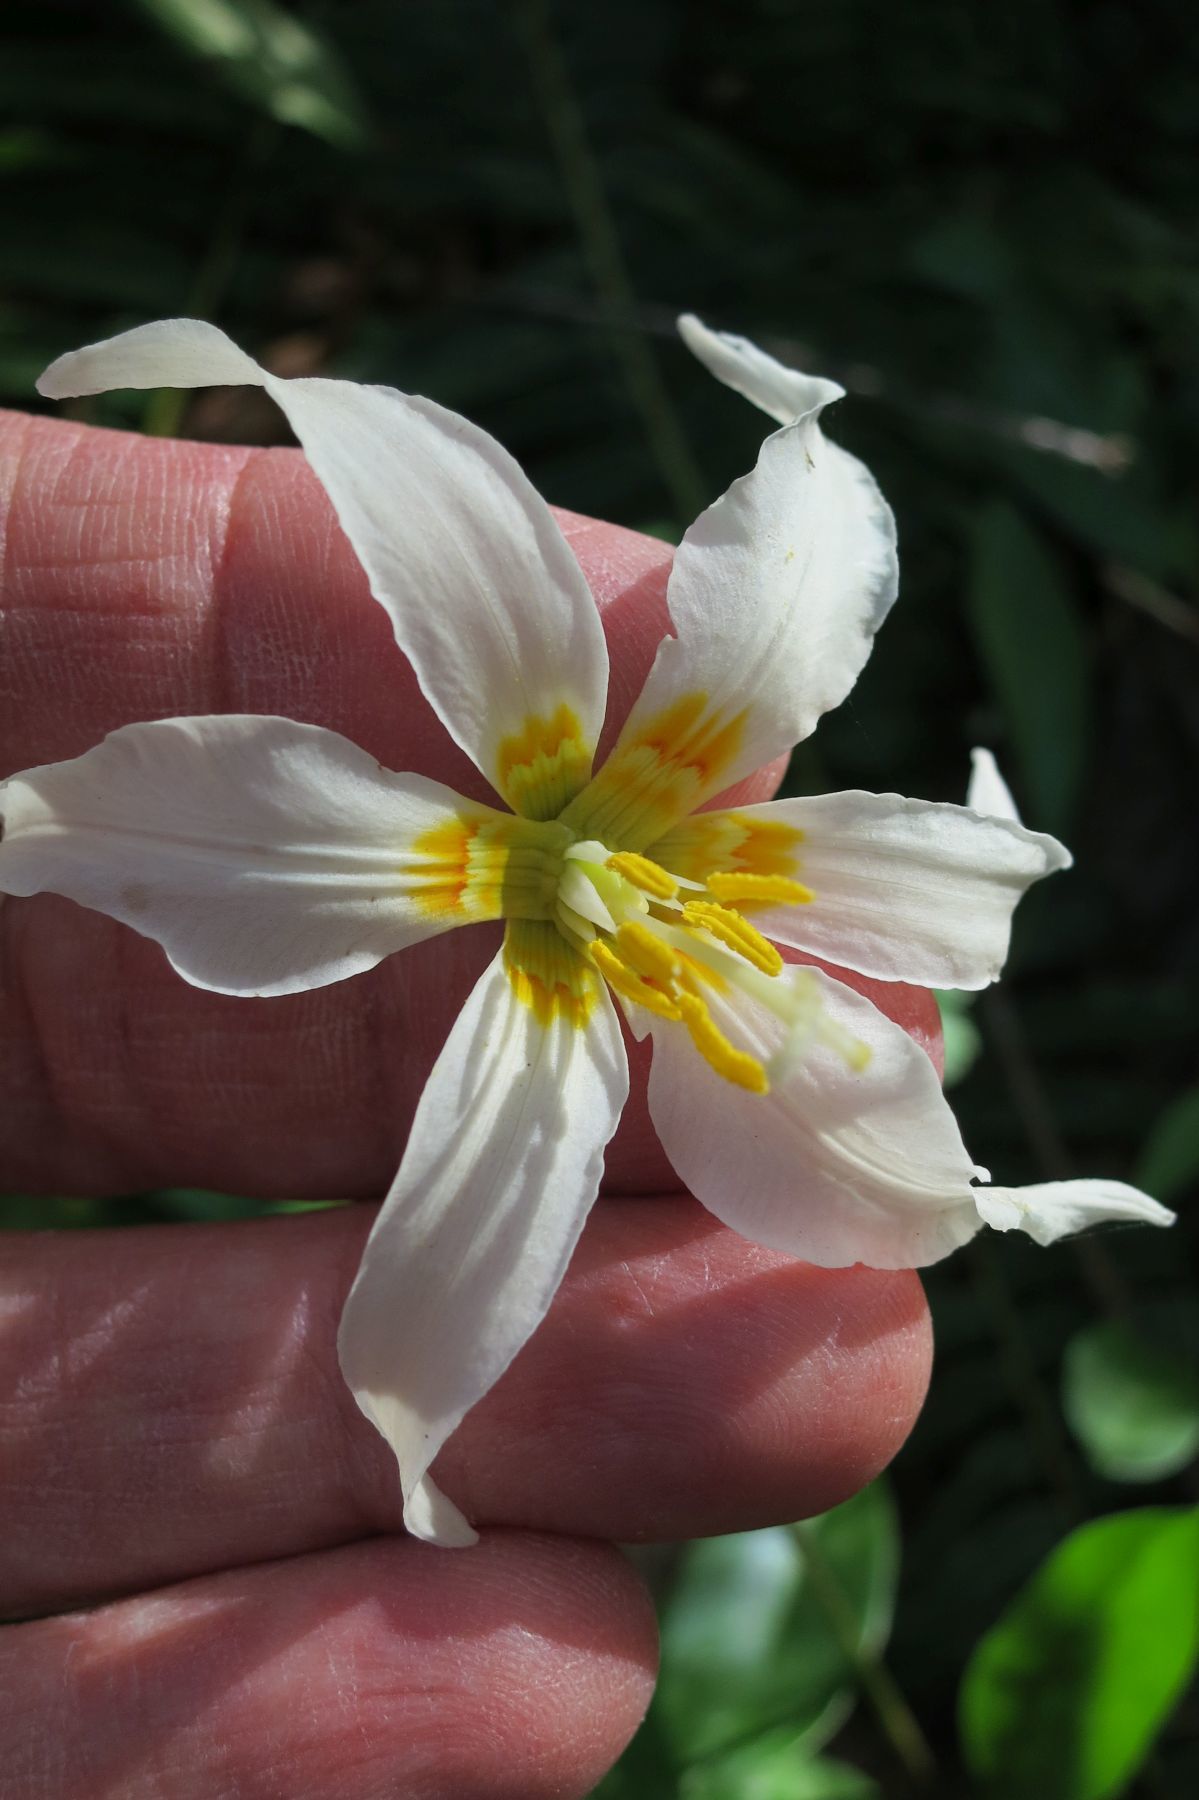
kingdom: Plantae
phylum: Tracheophyta
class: Liliopsida
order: Liliales
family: Liliaceae
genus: Erythronium
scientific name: Erythronium oregonum
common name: Giant adder's-tongue
